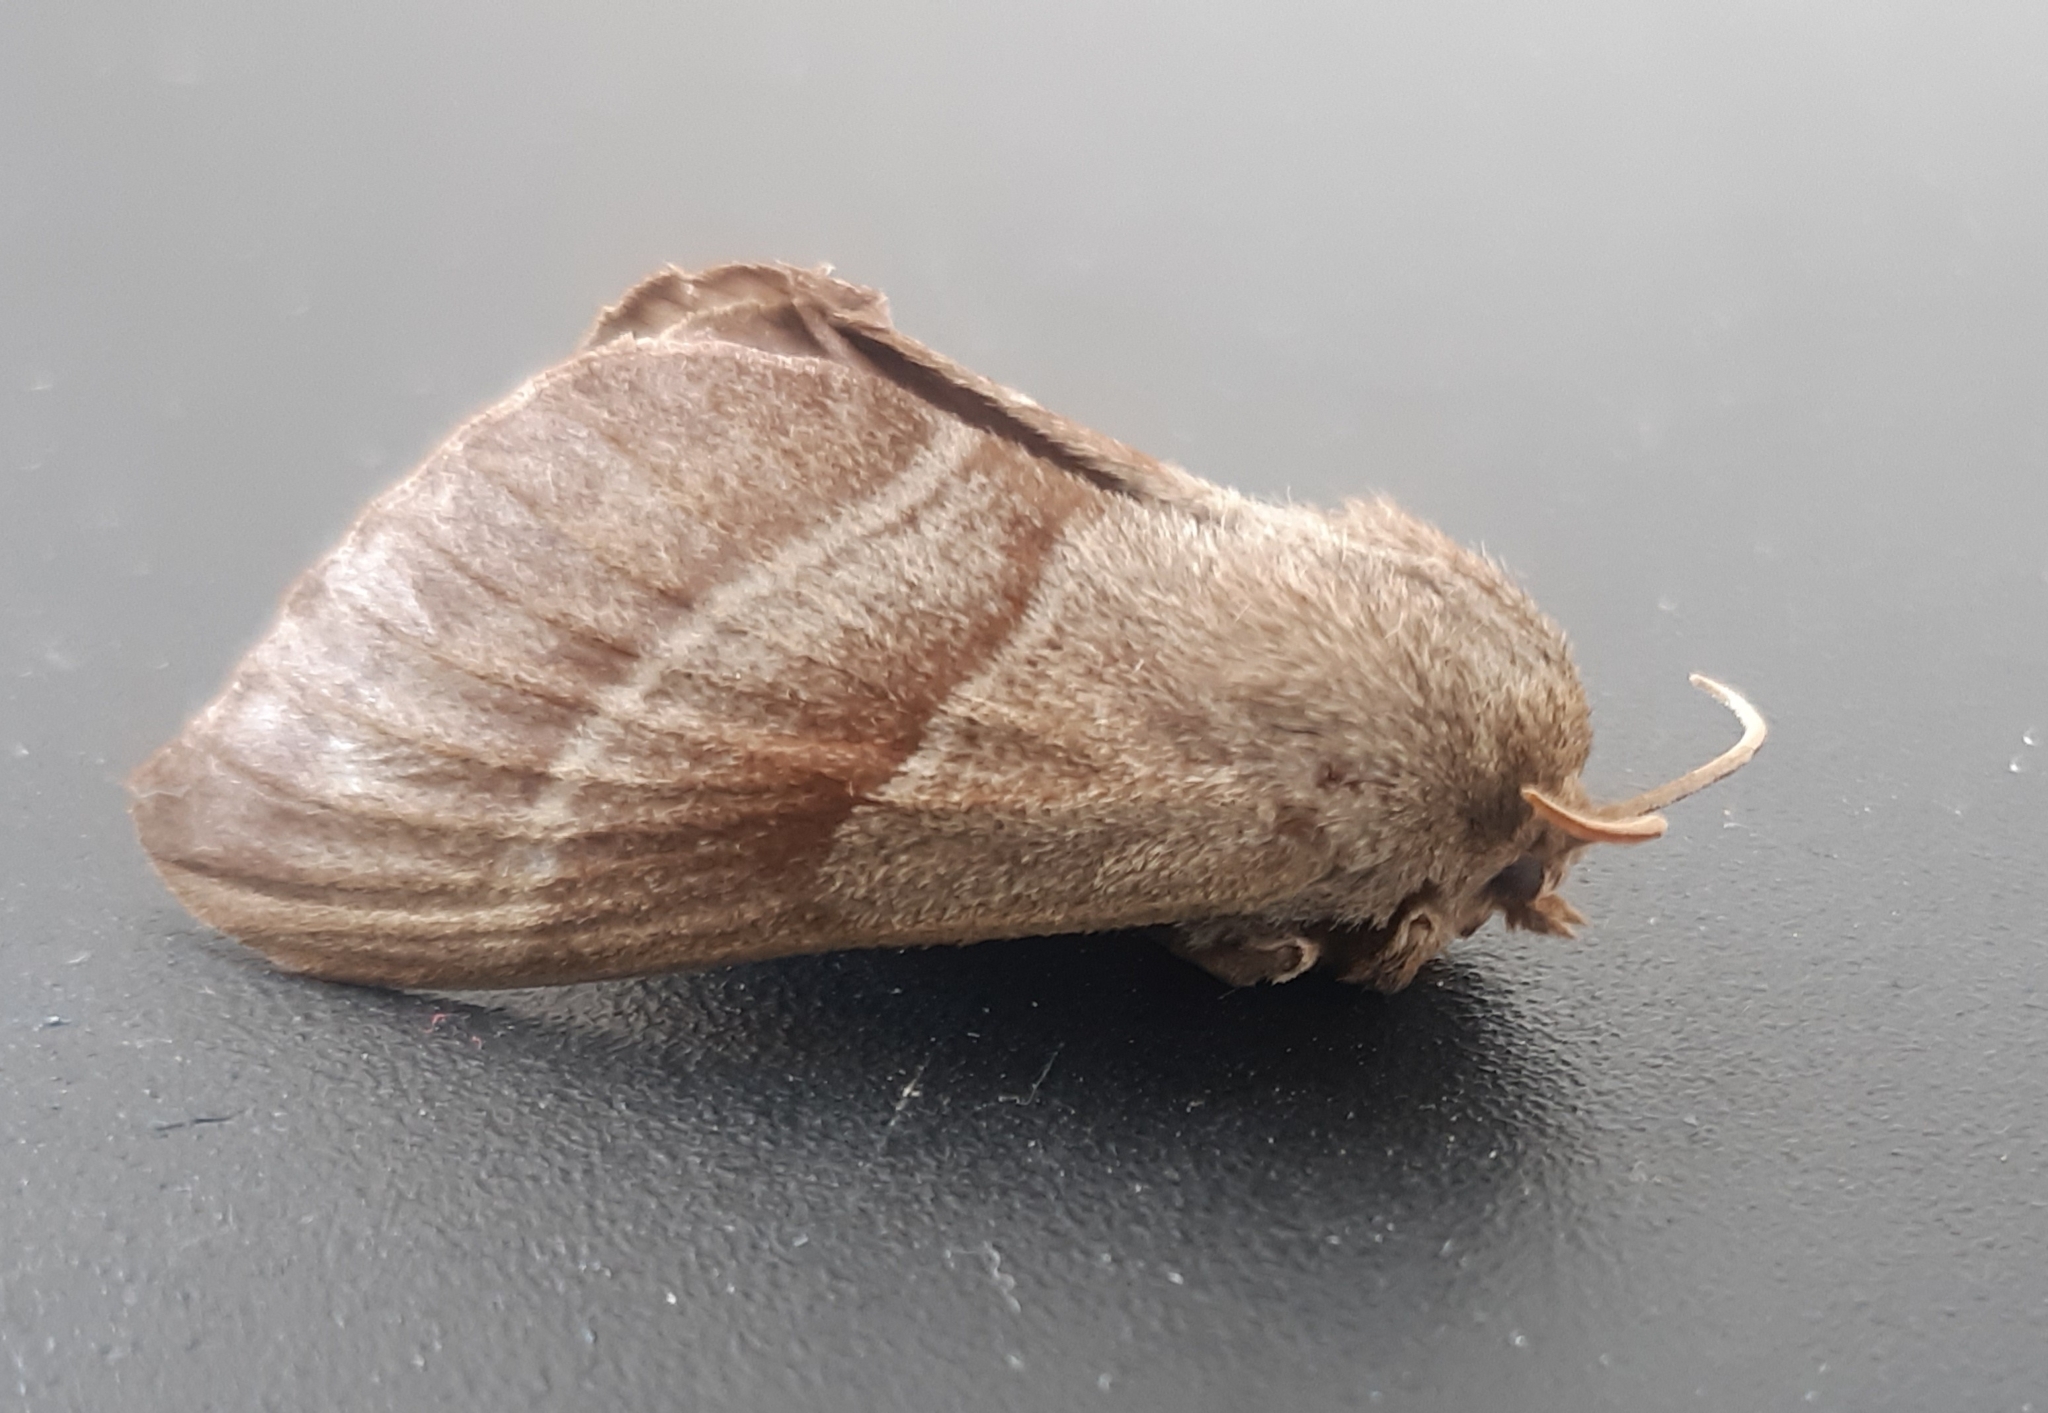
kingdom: Animalia
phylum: Arthropoda
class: Insecta
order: Lepidoptera
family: Lasiocampidae
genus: Macrothylacia
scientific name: Macrothylacia rubi
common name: Fox moth
